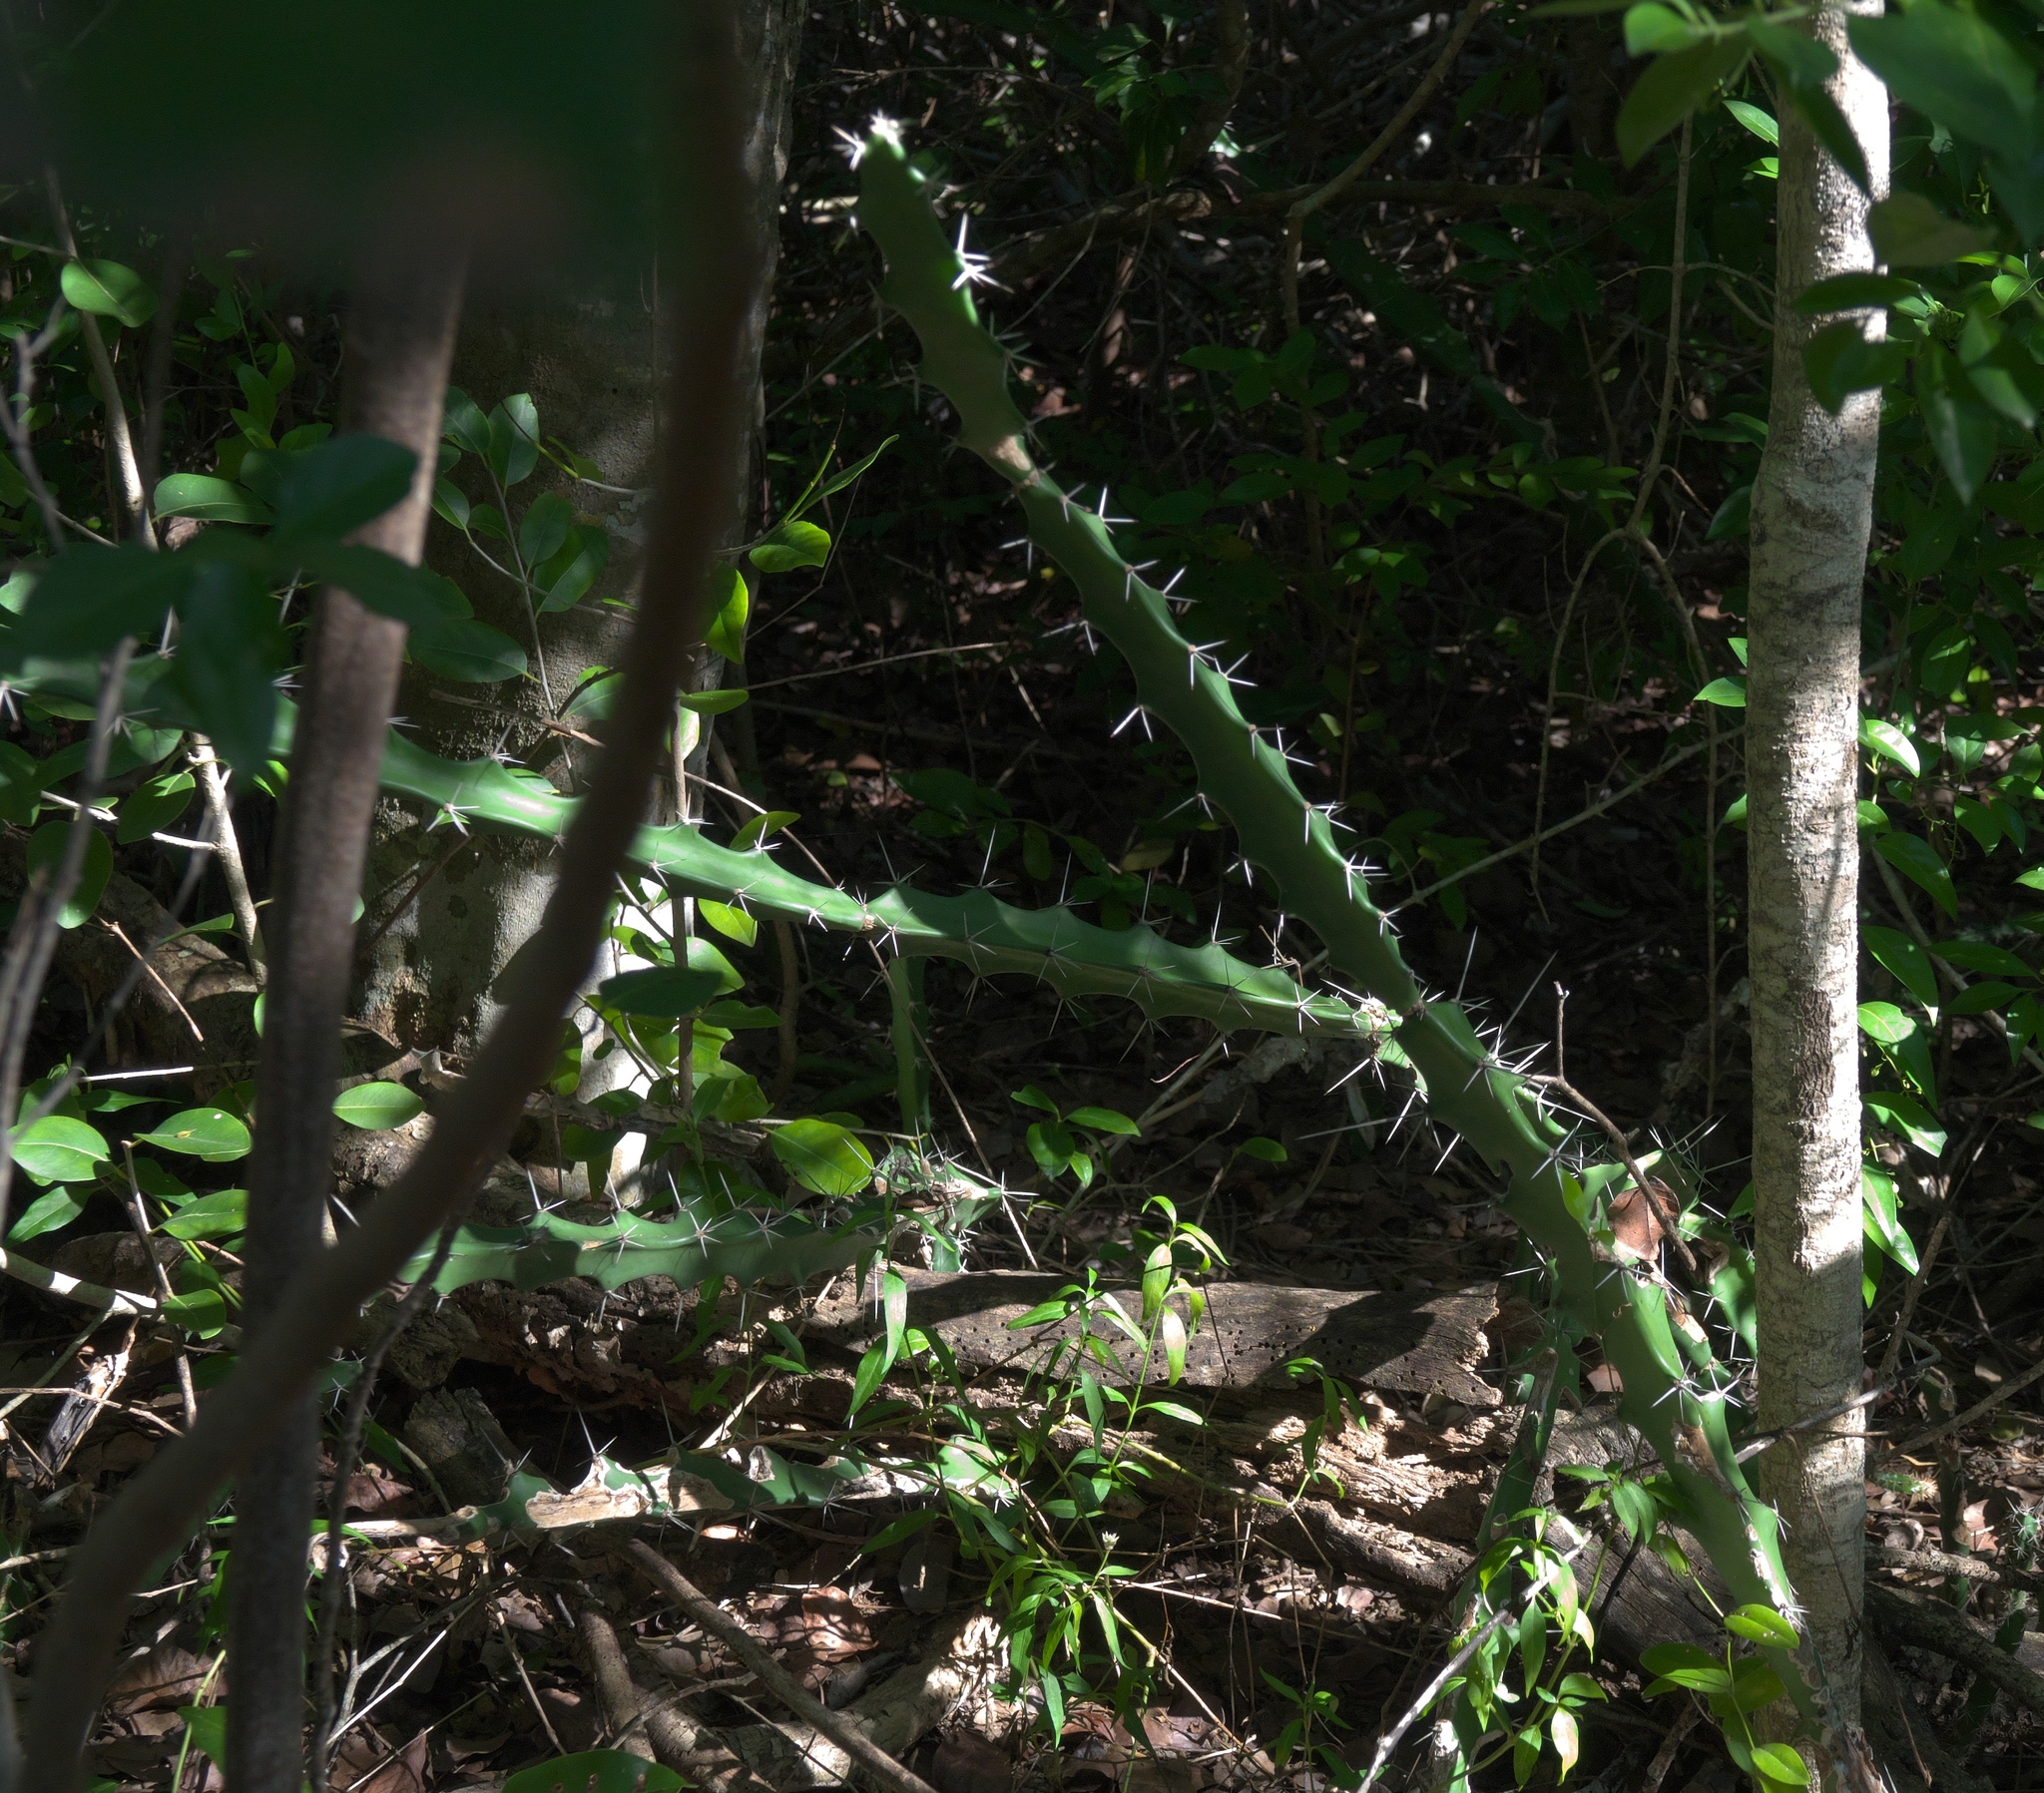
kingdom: Plantae
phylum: Tracheophyta
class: Magnoliopsida
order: Caryophyllales
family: Cactaceae
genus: Acanthocereus
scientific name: Acanthocereus tetragonus
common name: Triangle cactus
